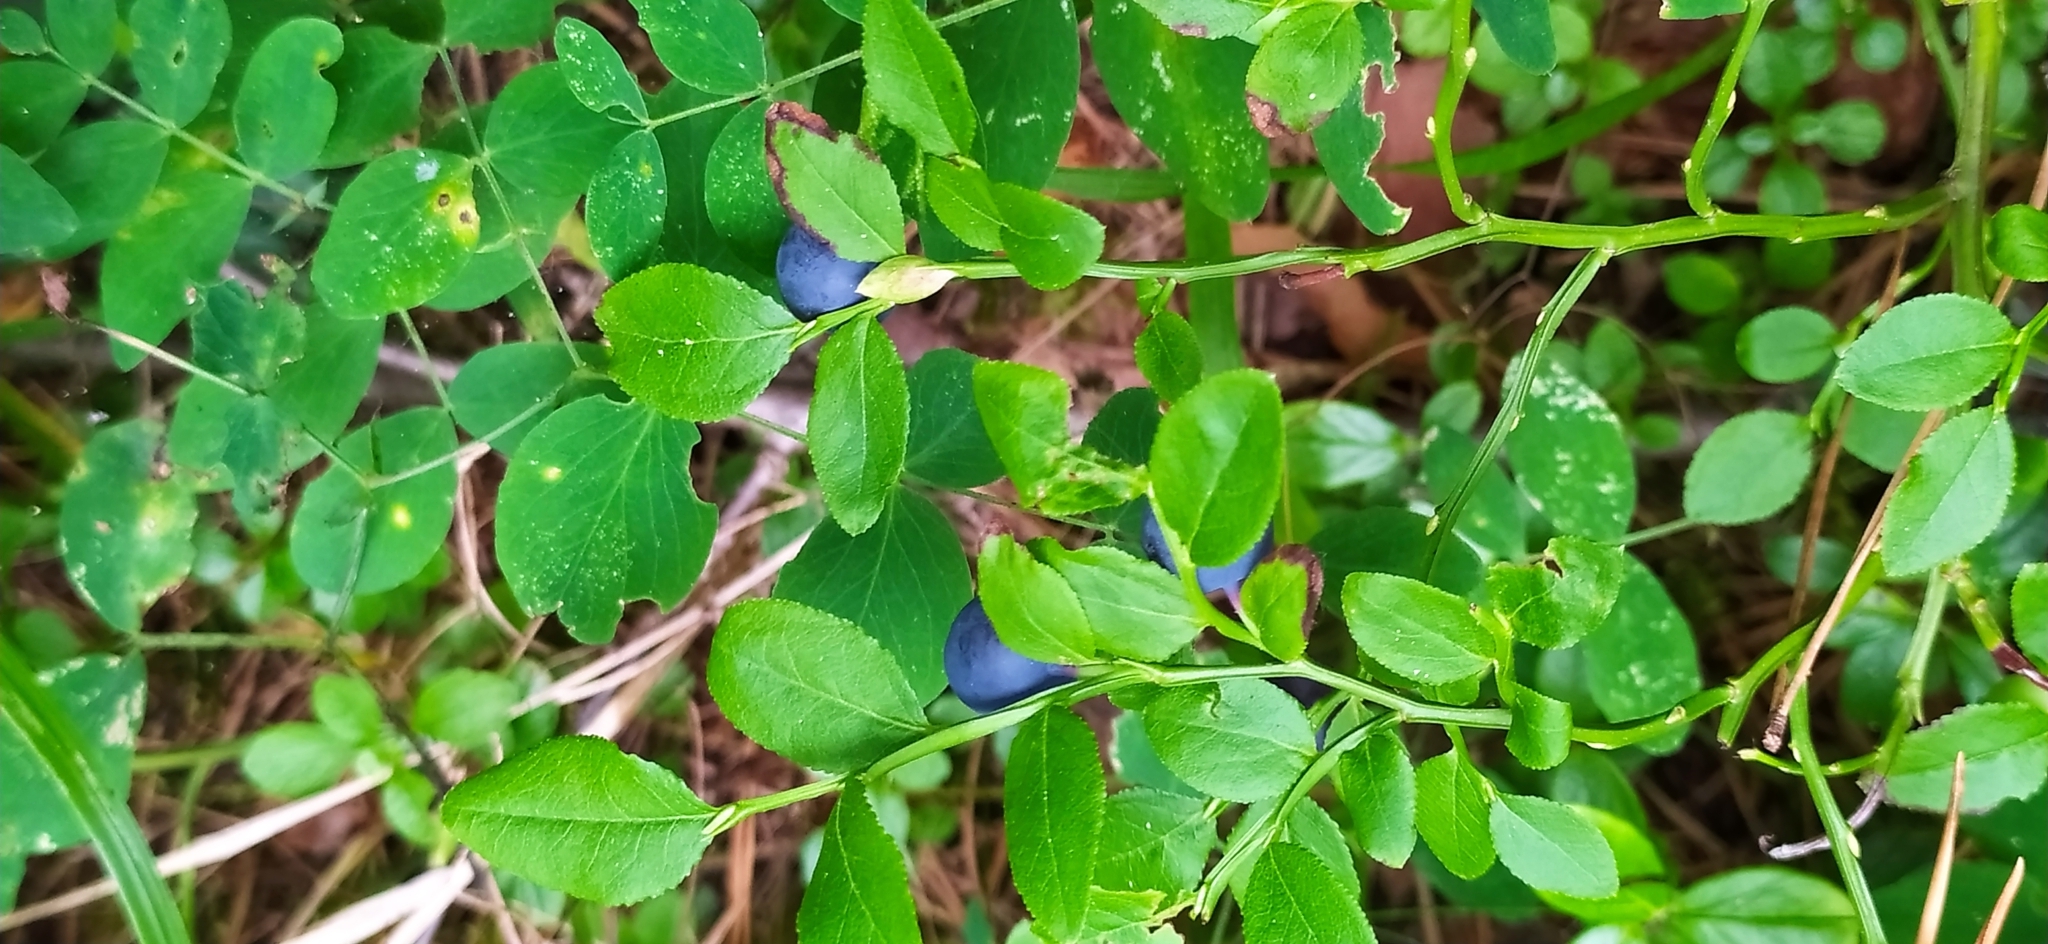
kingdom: Plantae
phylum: Tracheophyta
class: Magnoliopsida
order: Ericales
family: Ericaceae
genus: Vaccinium
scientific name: Vaccinium myrtillus
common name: Bilberry
